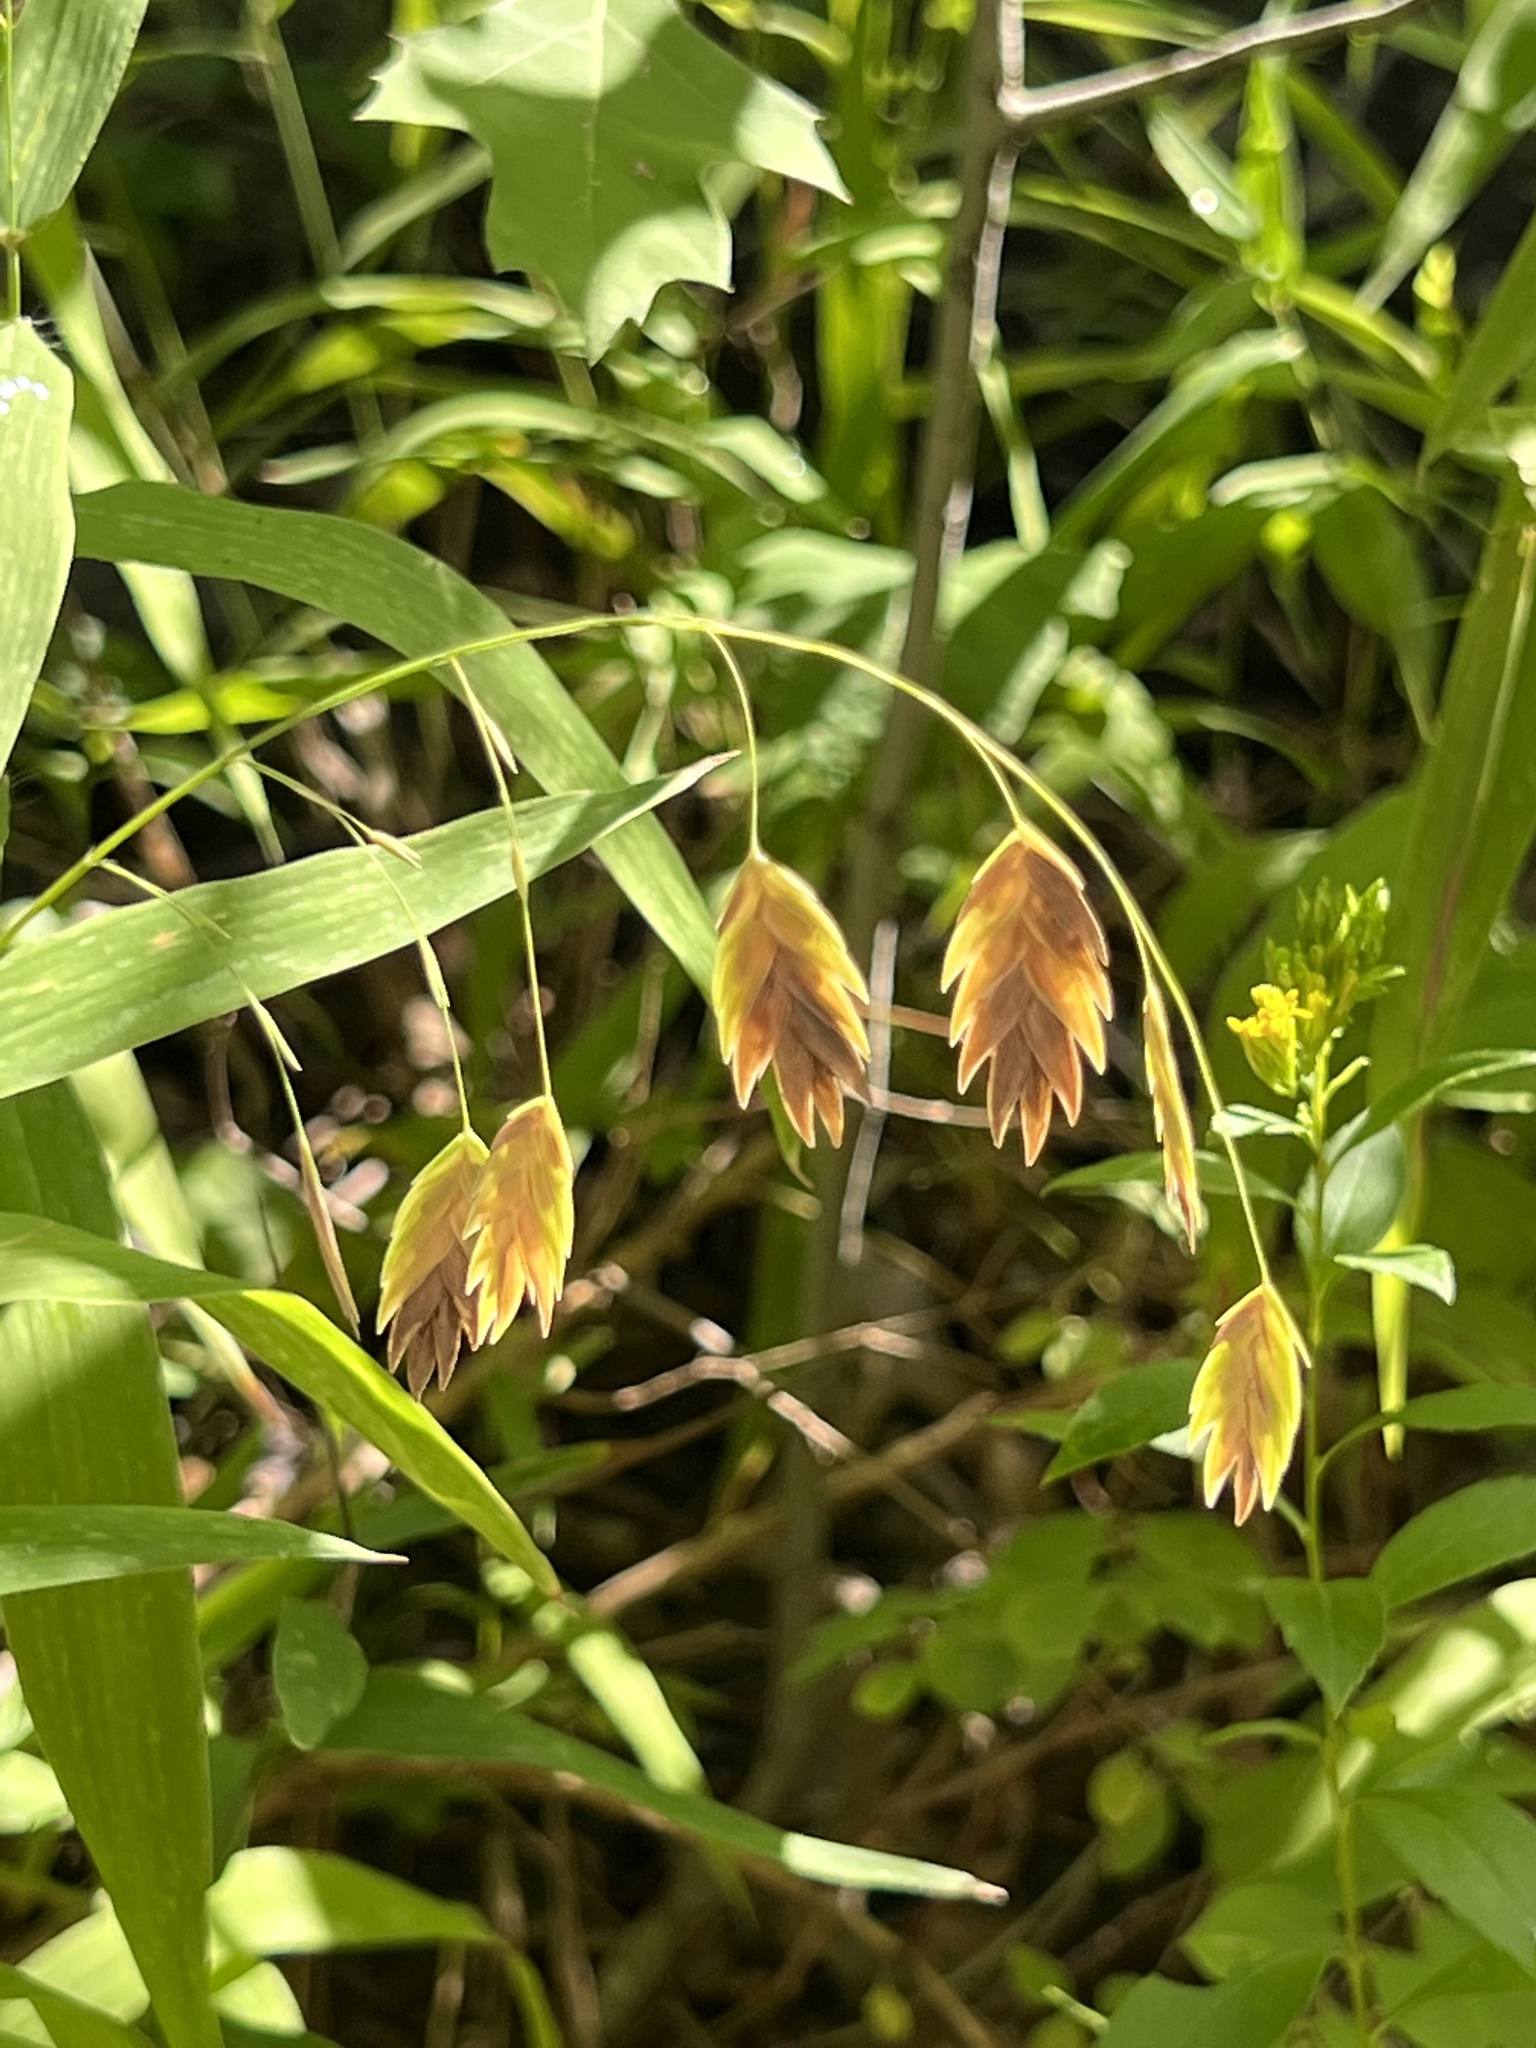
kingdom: Plantae
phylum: Tracheophyta
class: Liliopsida
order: Poales
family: Poaceae
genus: Chasmanthium
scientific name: Chasmanthium latifolium
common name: Broad-leaved chasmanthium
